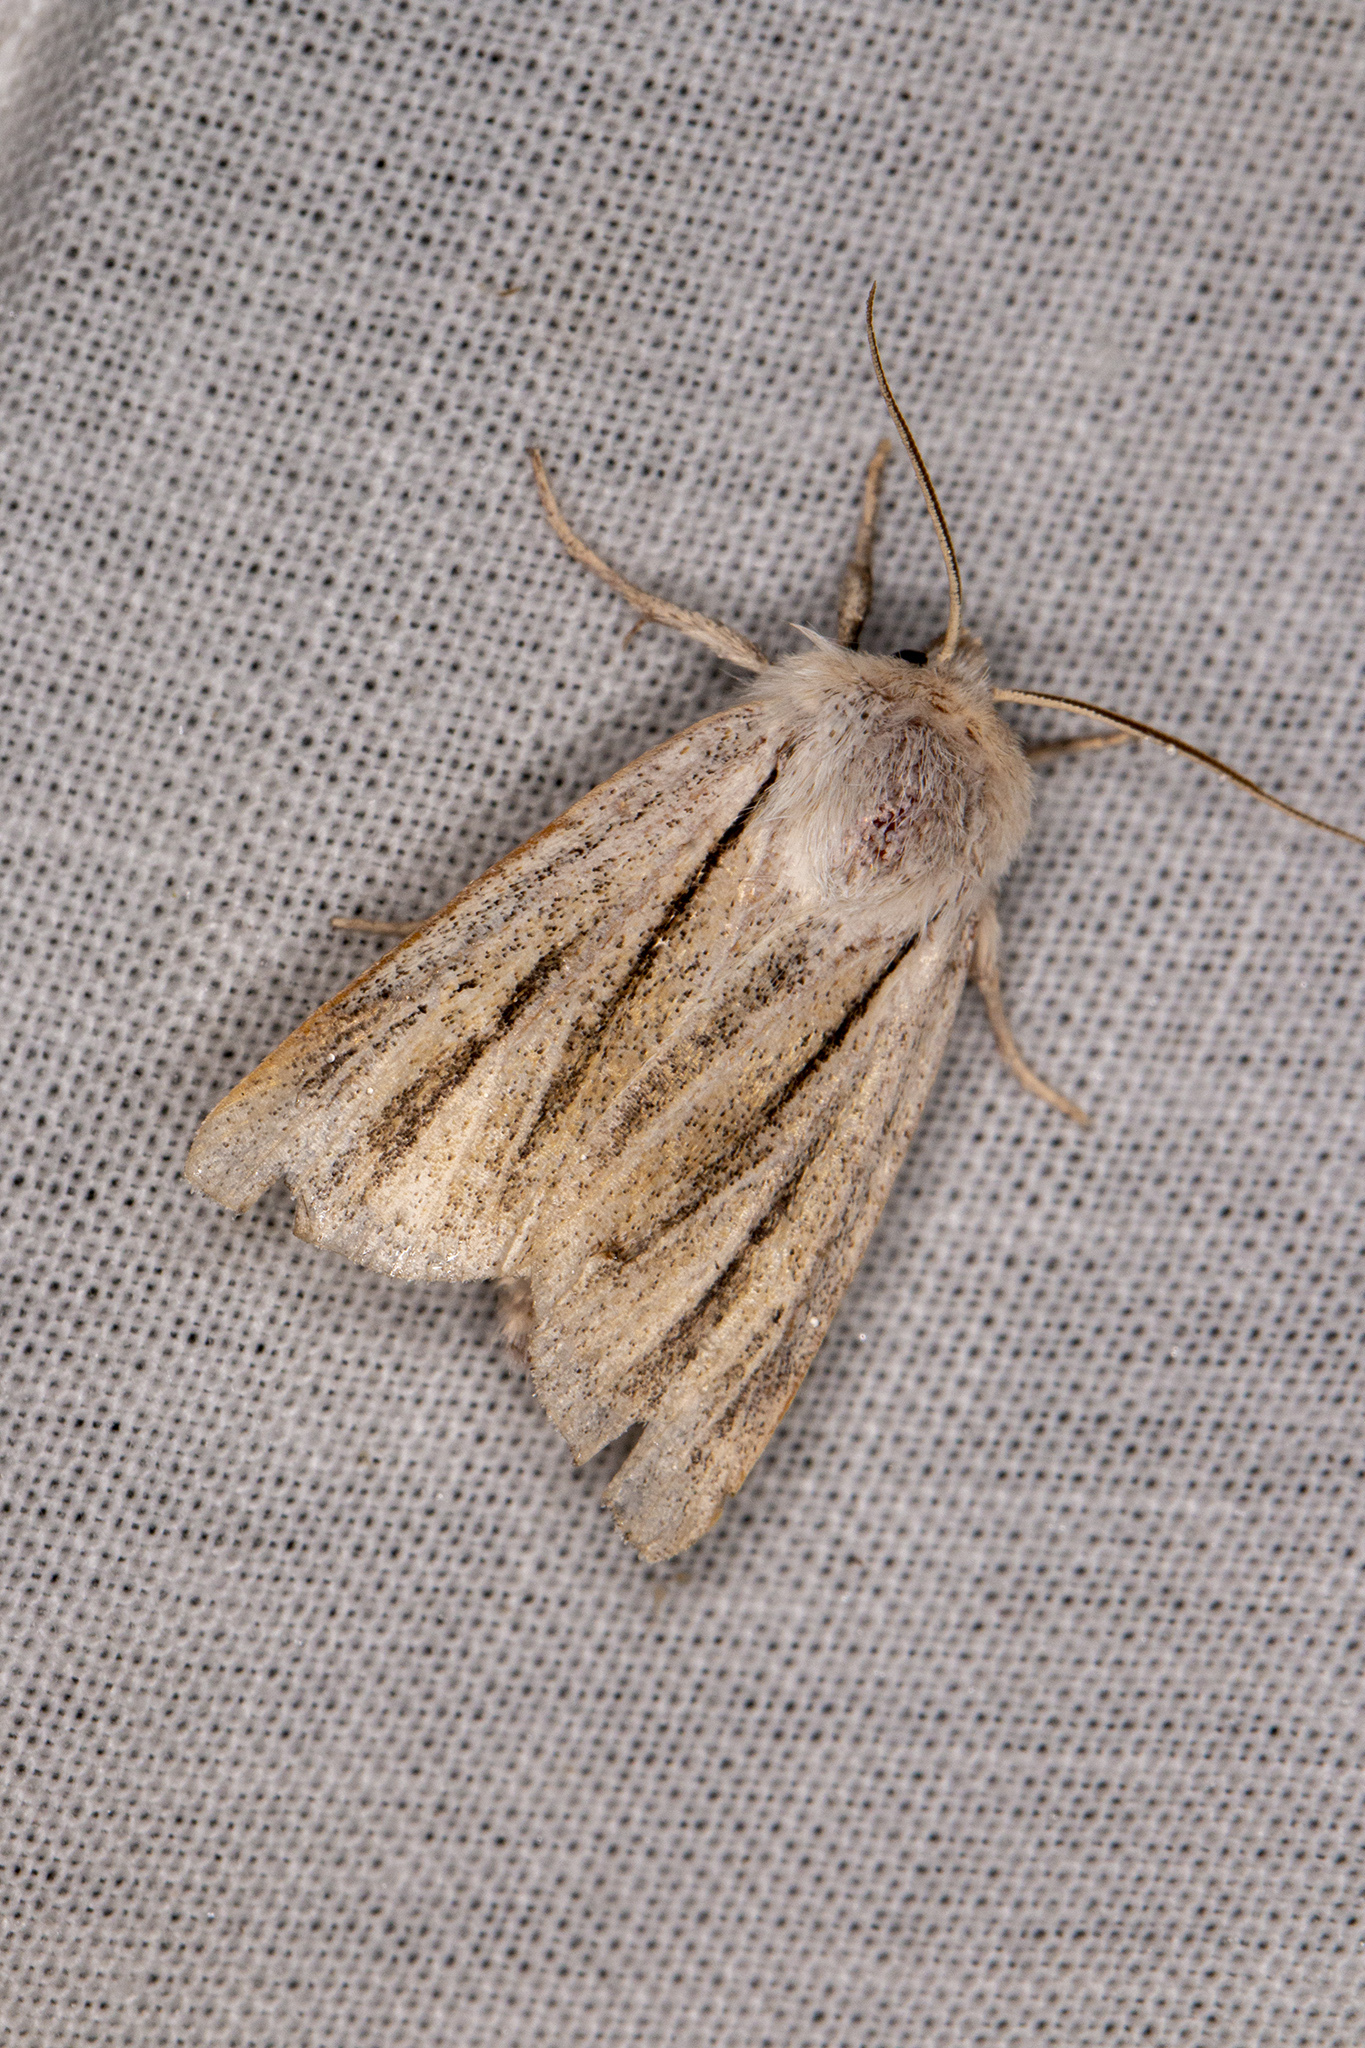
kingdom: Animalia
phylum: Arthropoda
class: Insecta
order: Lepidoptera
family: Noctuidae
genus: Simyra
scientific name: Simyra albovenosa
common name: Reed dagger
